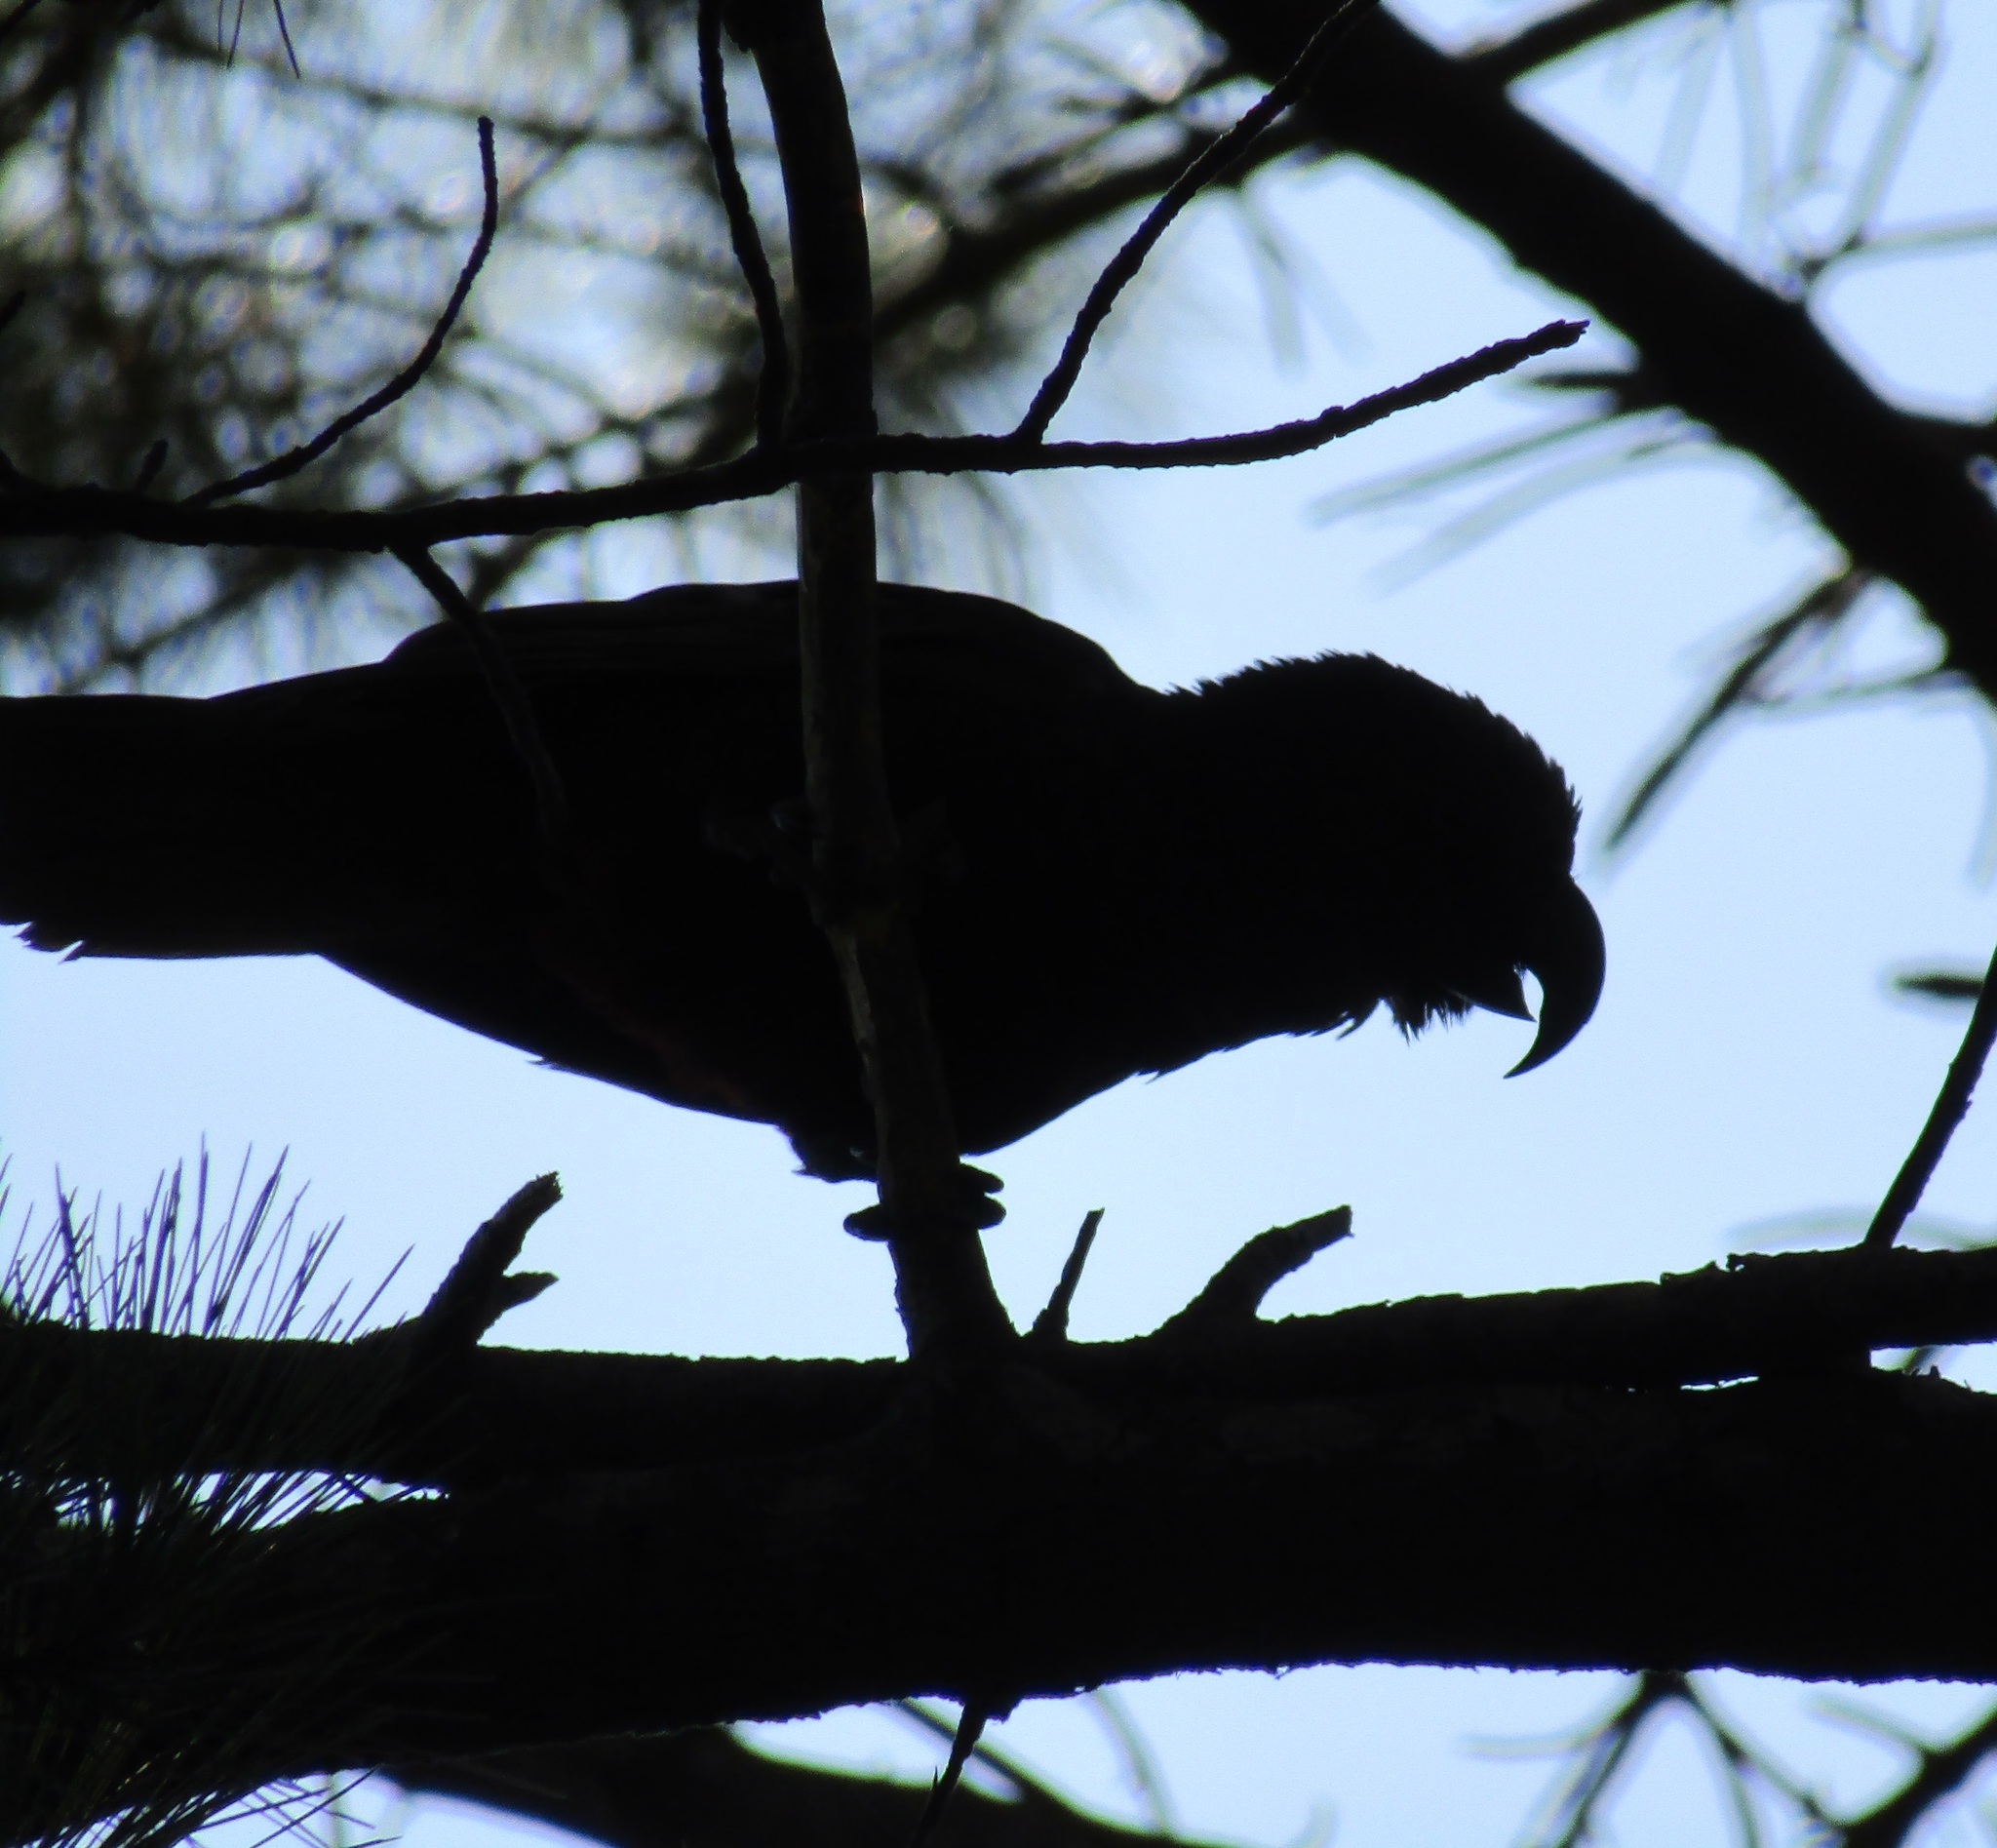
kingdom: Animalia
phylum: Chordata
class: Aves
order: Psittaciformes
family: Psittacidae
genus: Nestor
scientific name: Nestor meridionalis
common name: New zealand kaka
